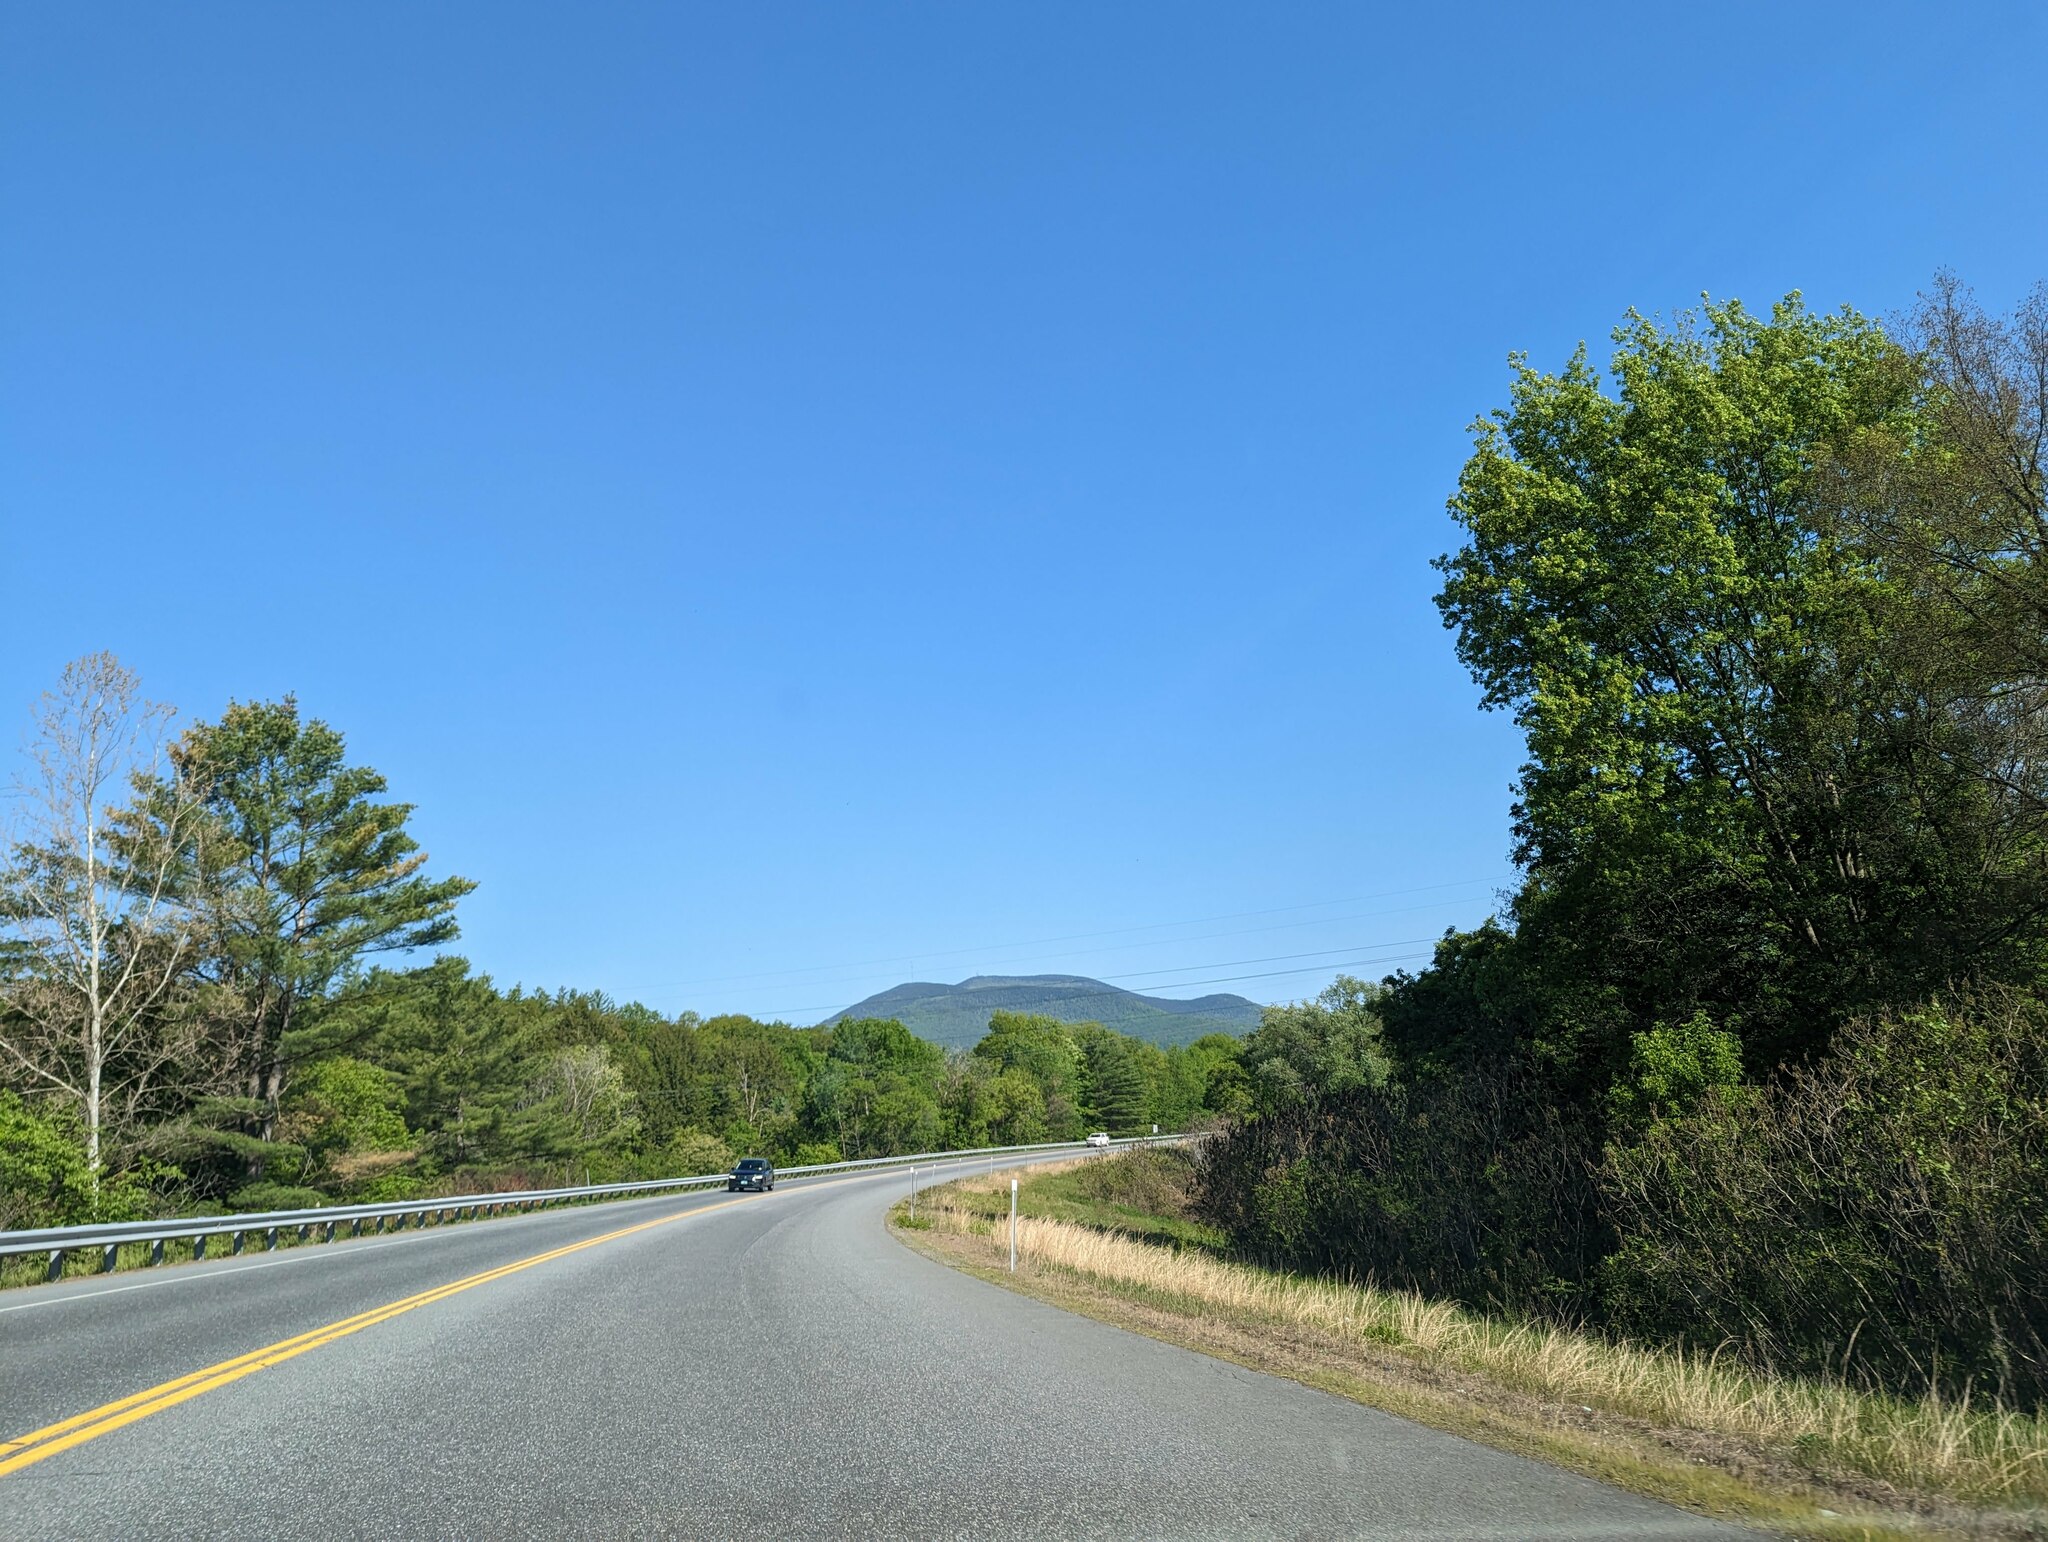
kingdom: Plantae
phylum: Tracheophyta
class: Pinopsida
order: Pinales
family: Pinaceae
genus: Pinus
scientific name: Pinus strobus
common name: Weymouth pine
